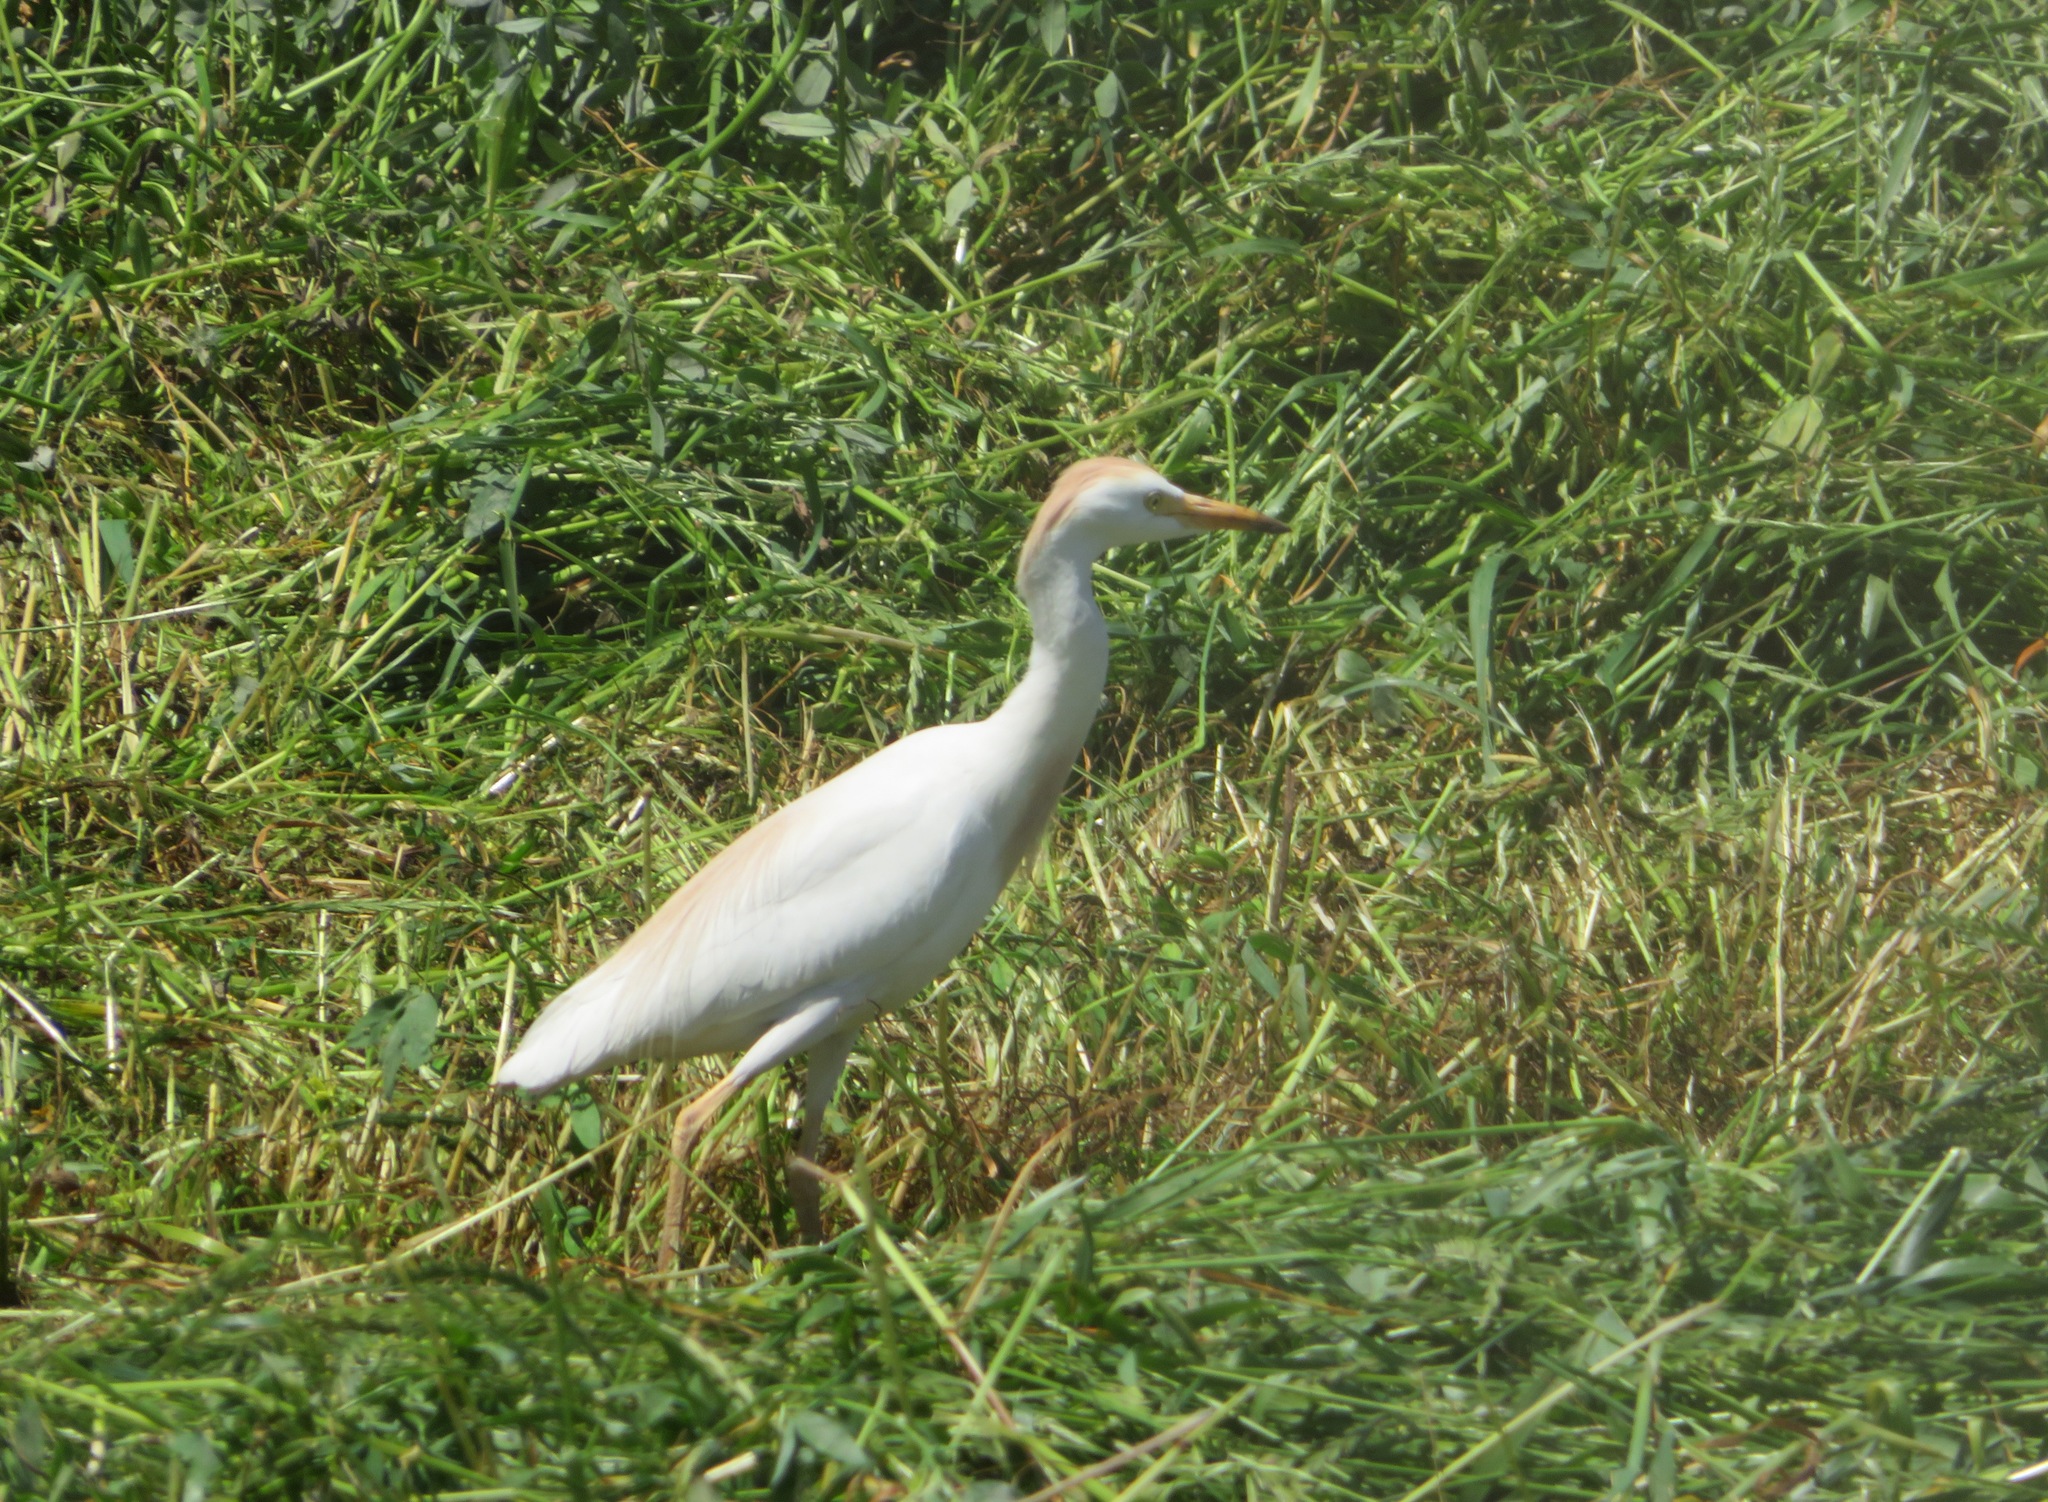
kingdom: Animalia
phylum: Chordata
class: Aves
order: Pelecaniformes
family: Ardeidae
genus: Bubulcus
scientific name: Bubulcus ibis
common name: Cattle egret
